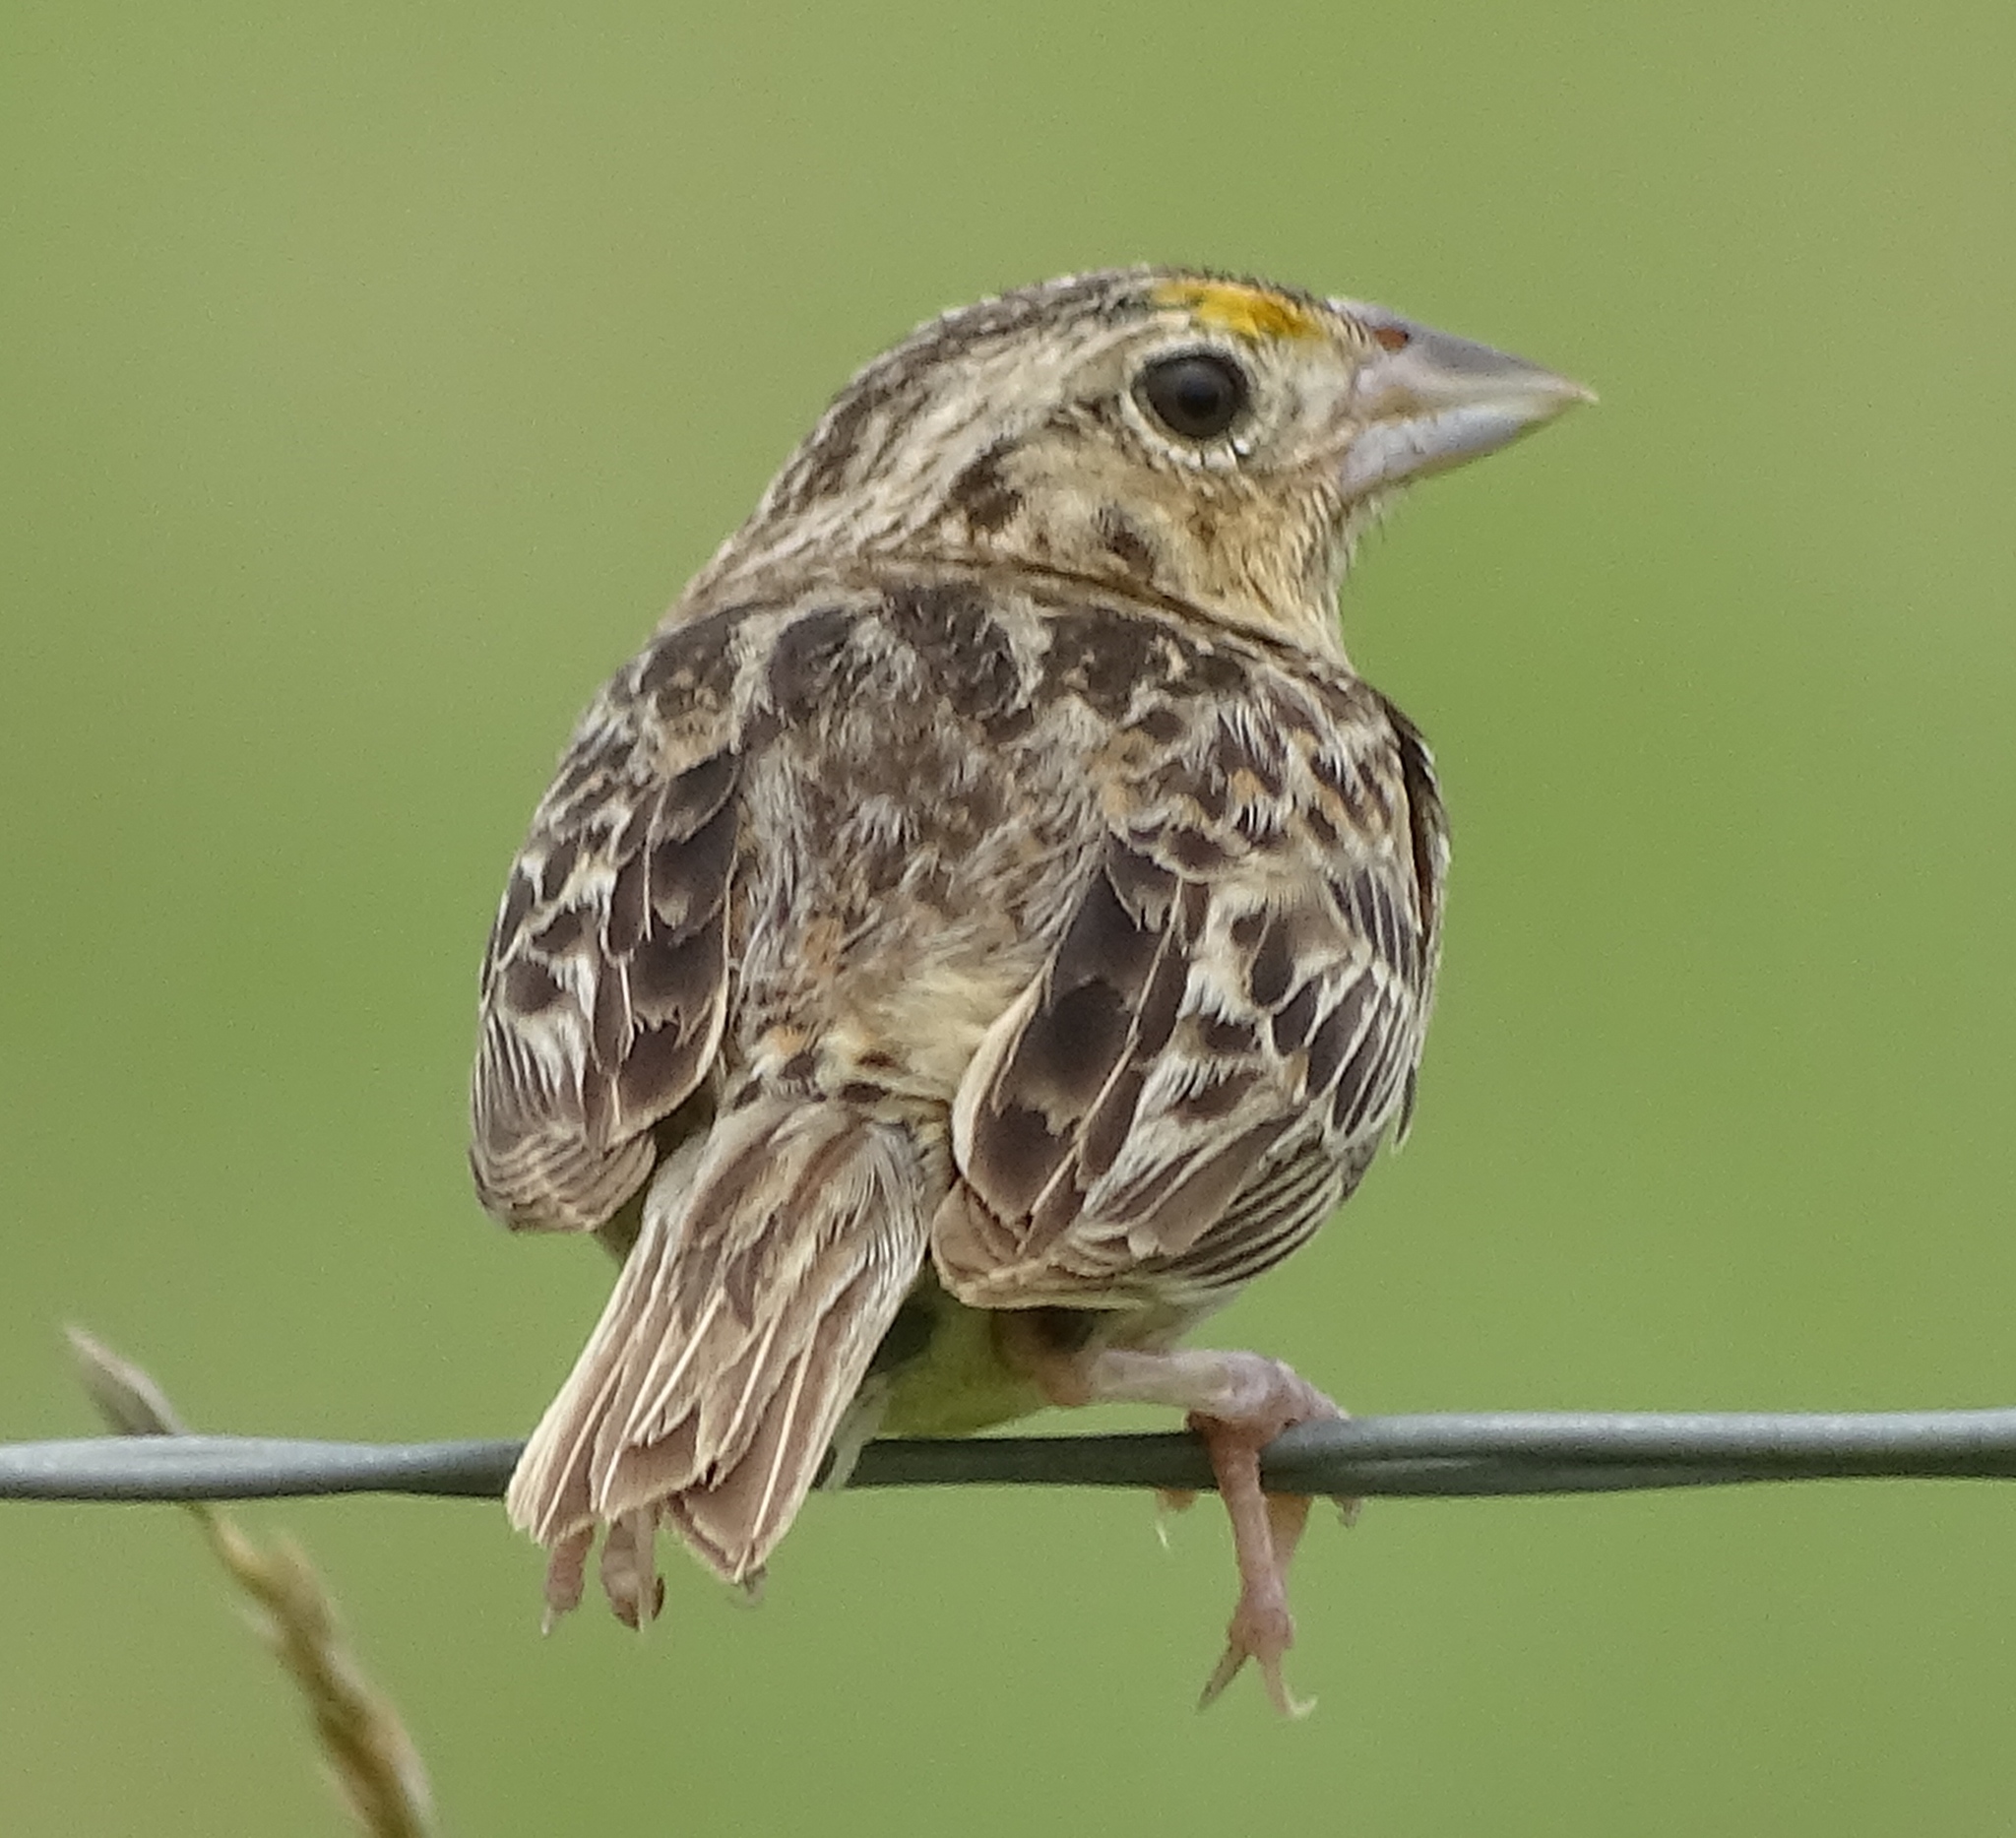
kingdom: Animalia
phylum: Chordata
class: Aves
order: Passeriformes
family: Passerellidae
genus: Ammodramus
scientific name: Ammodramus savannarum
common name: Grasshopper sparrow
